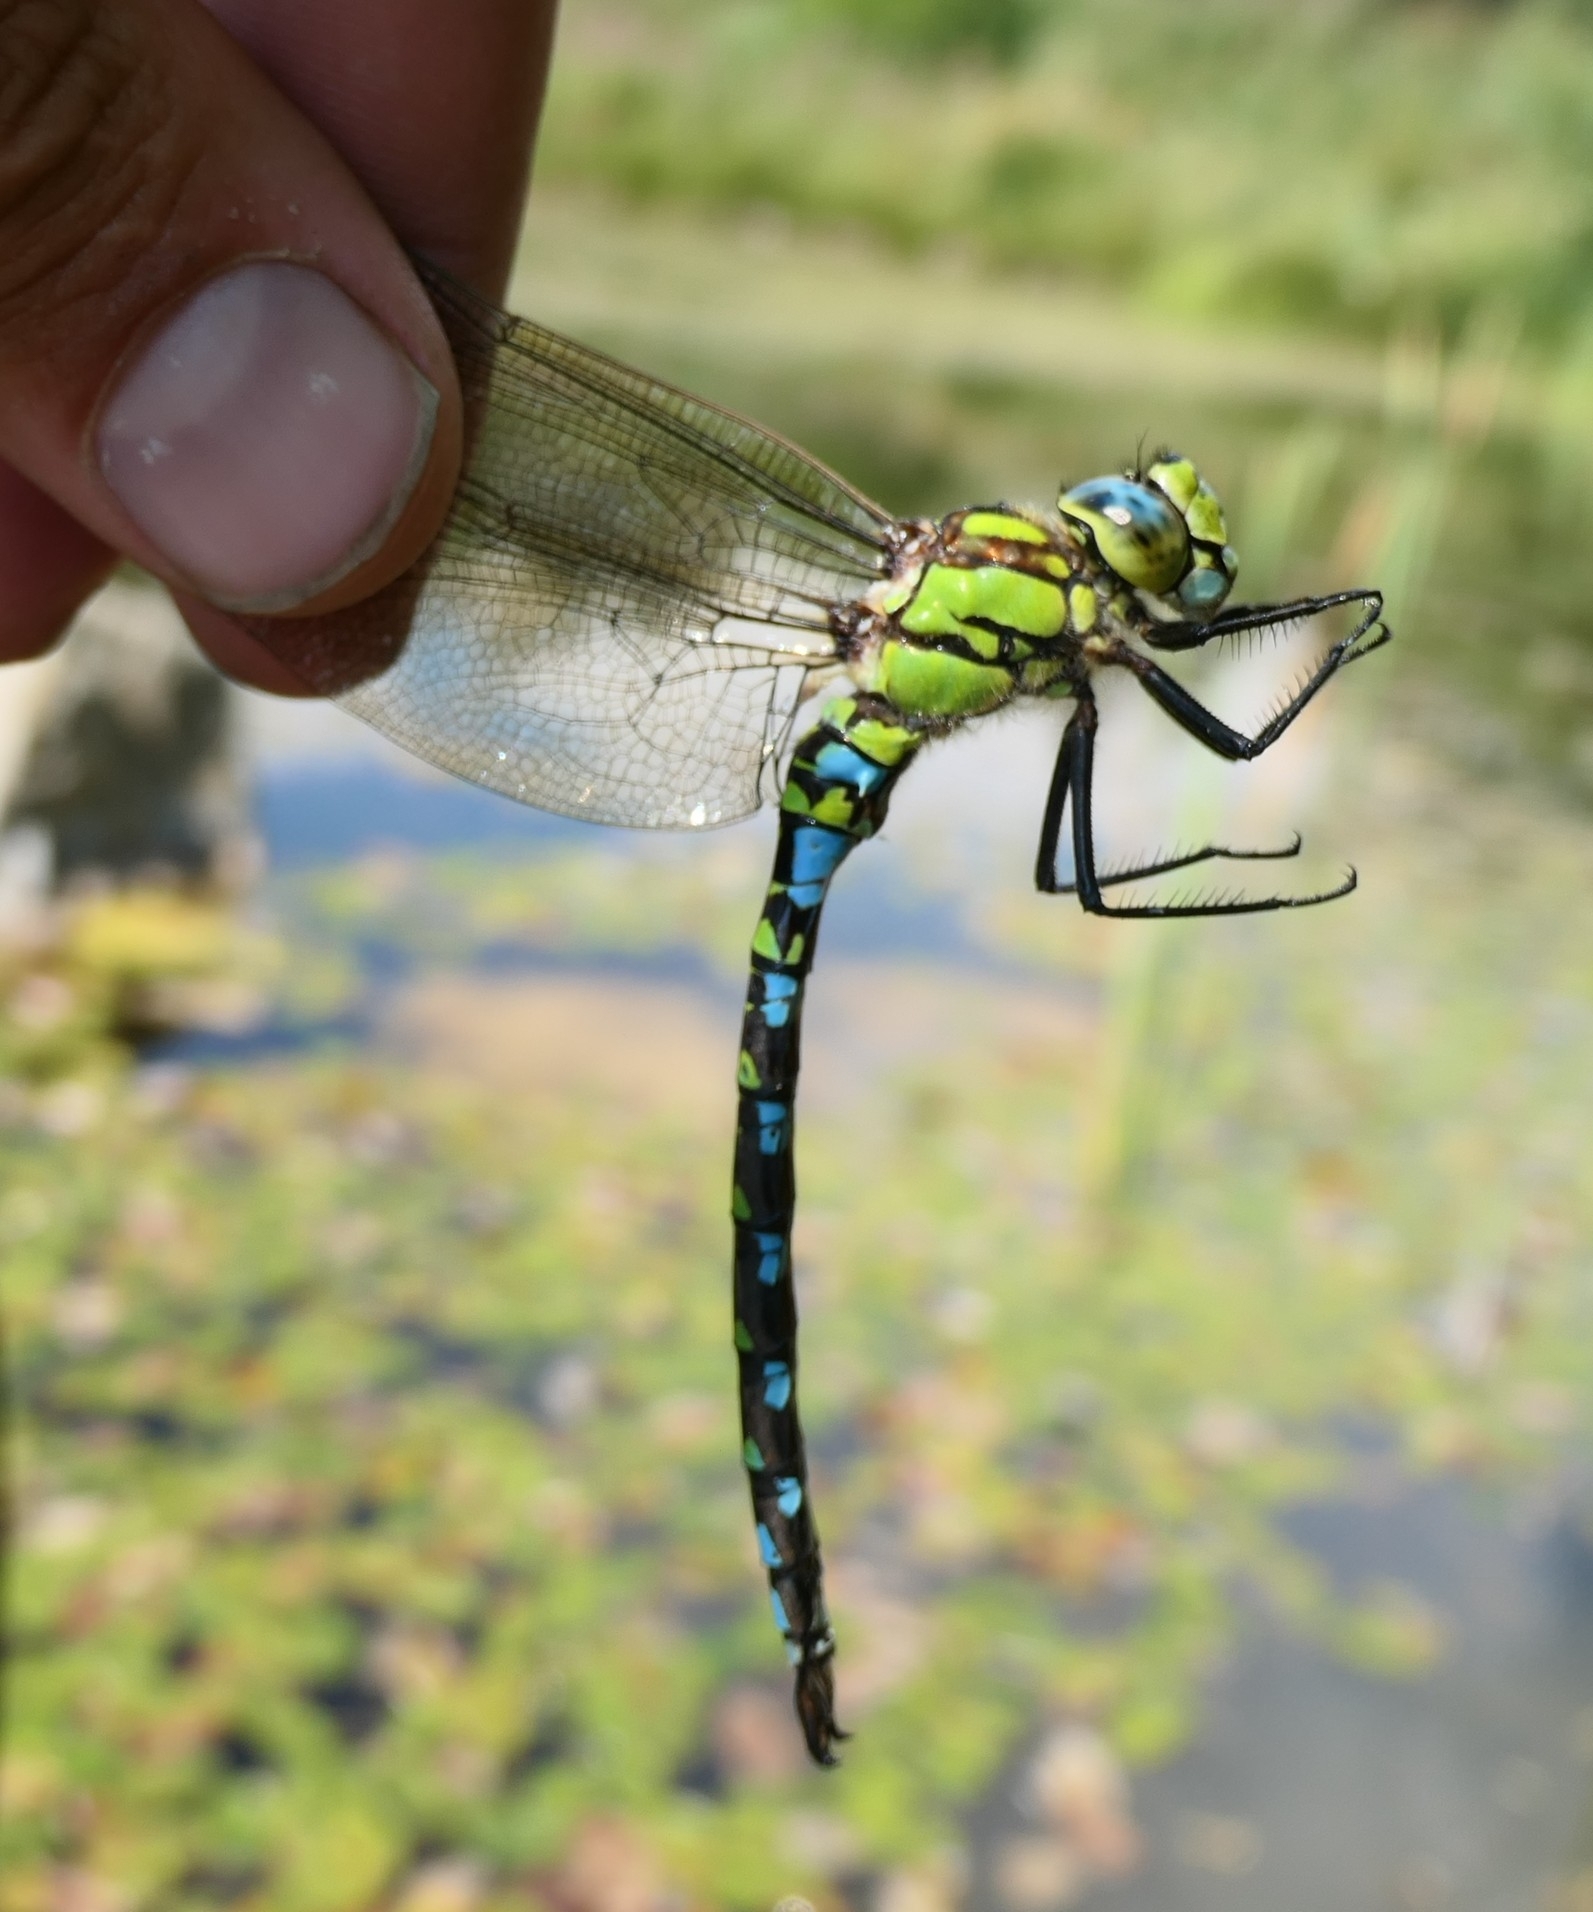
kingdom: Animalia
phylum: Arthropoda
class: Insecta
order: Odonata
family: Aeshnidae
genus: Aeshna
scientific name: Aeshna cyanea
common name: Southern hawker
